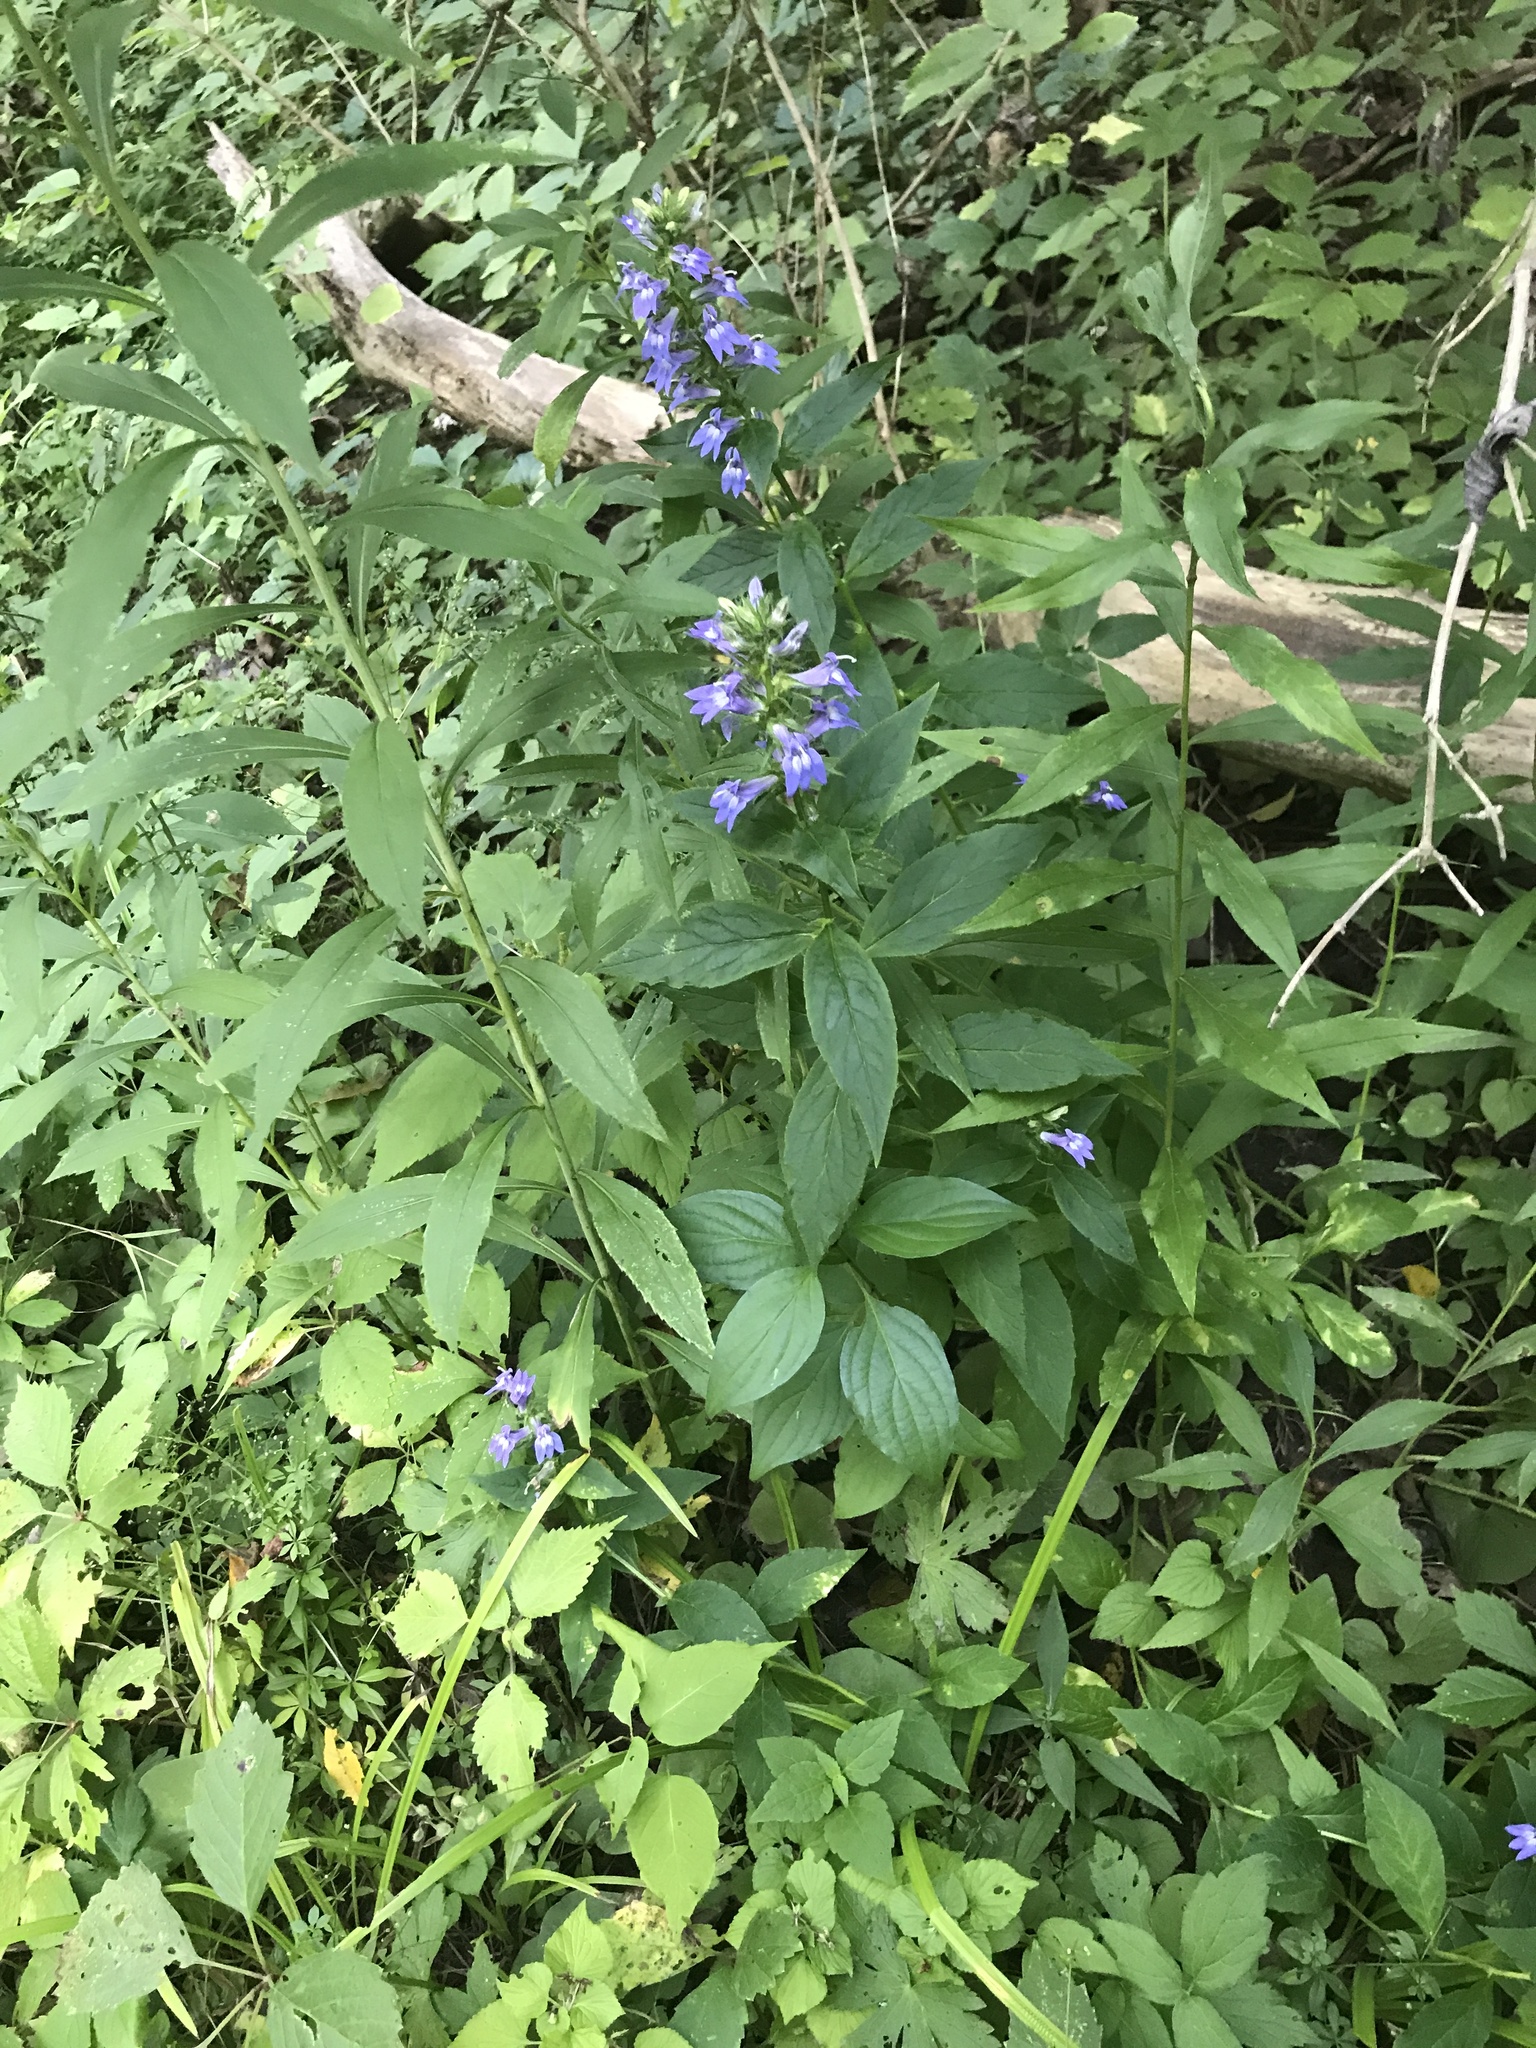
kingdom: Plantae
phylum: Tracheophyta
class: Magnoliopsida
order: Asterales
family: Campanulaceae
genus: Lobelia
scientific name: Lobelia siphilitica
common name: Great lobelia
